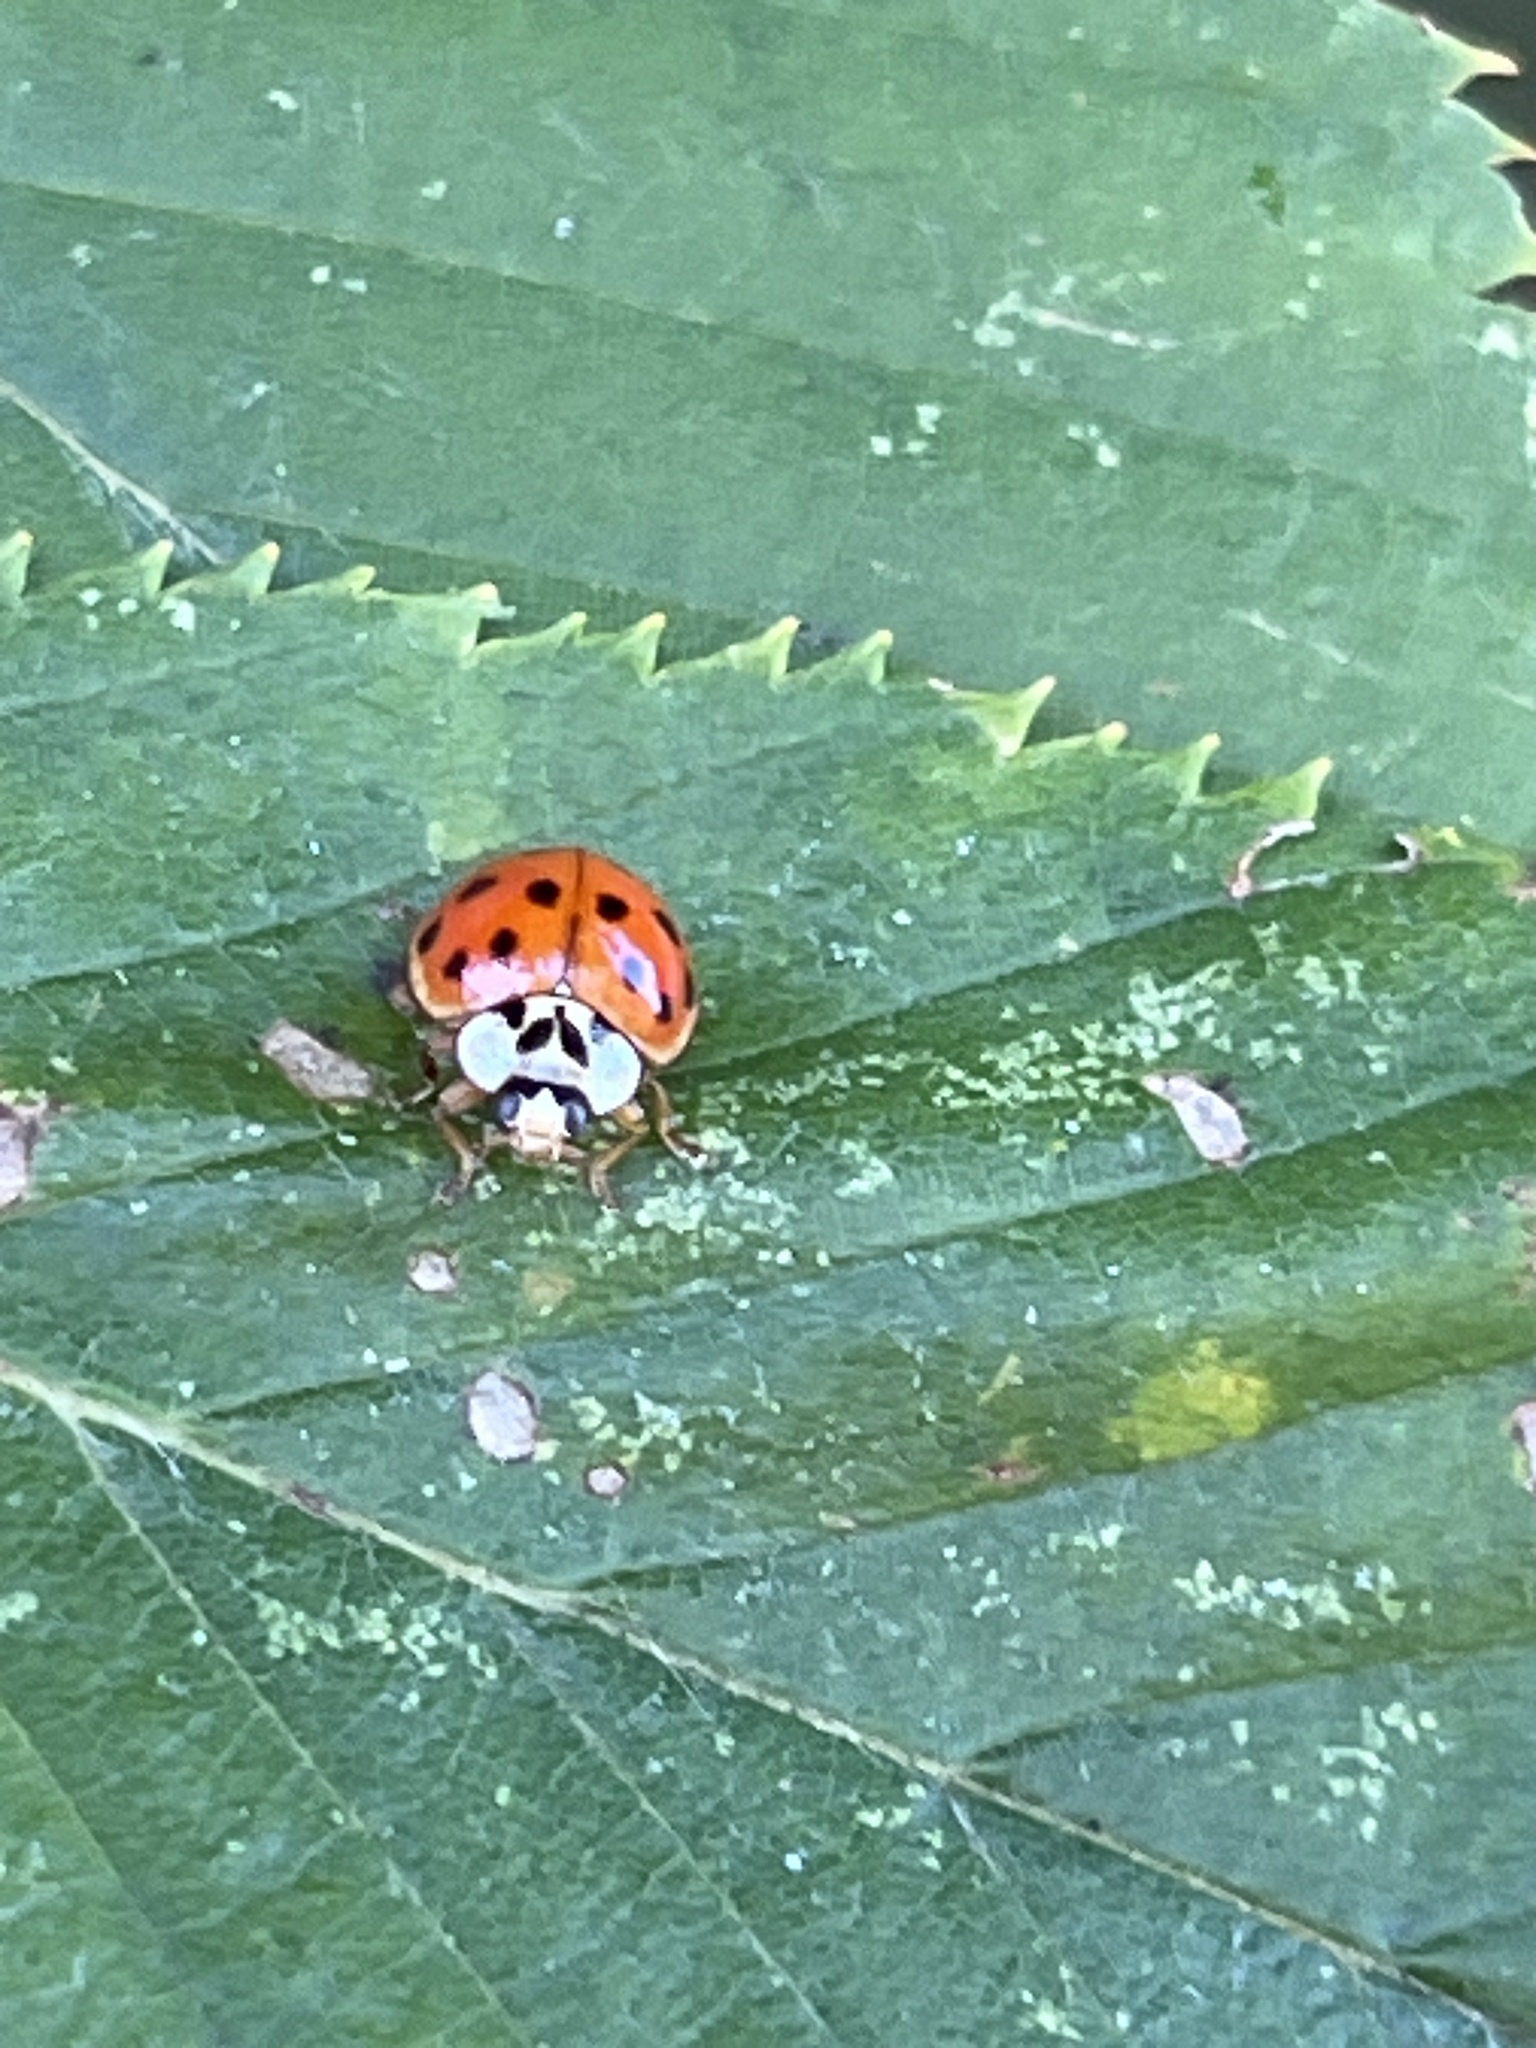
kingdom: Animalia
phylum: Arthropoda
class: Insecta
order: Coleoptera
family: Coccinellidae
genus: Harmonia
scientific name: Harmonia axyridis
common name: Harlequin ladybird
